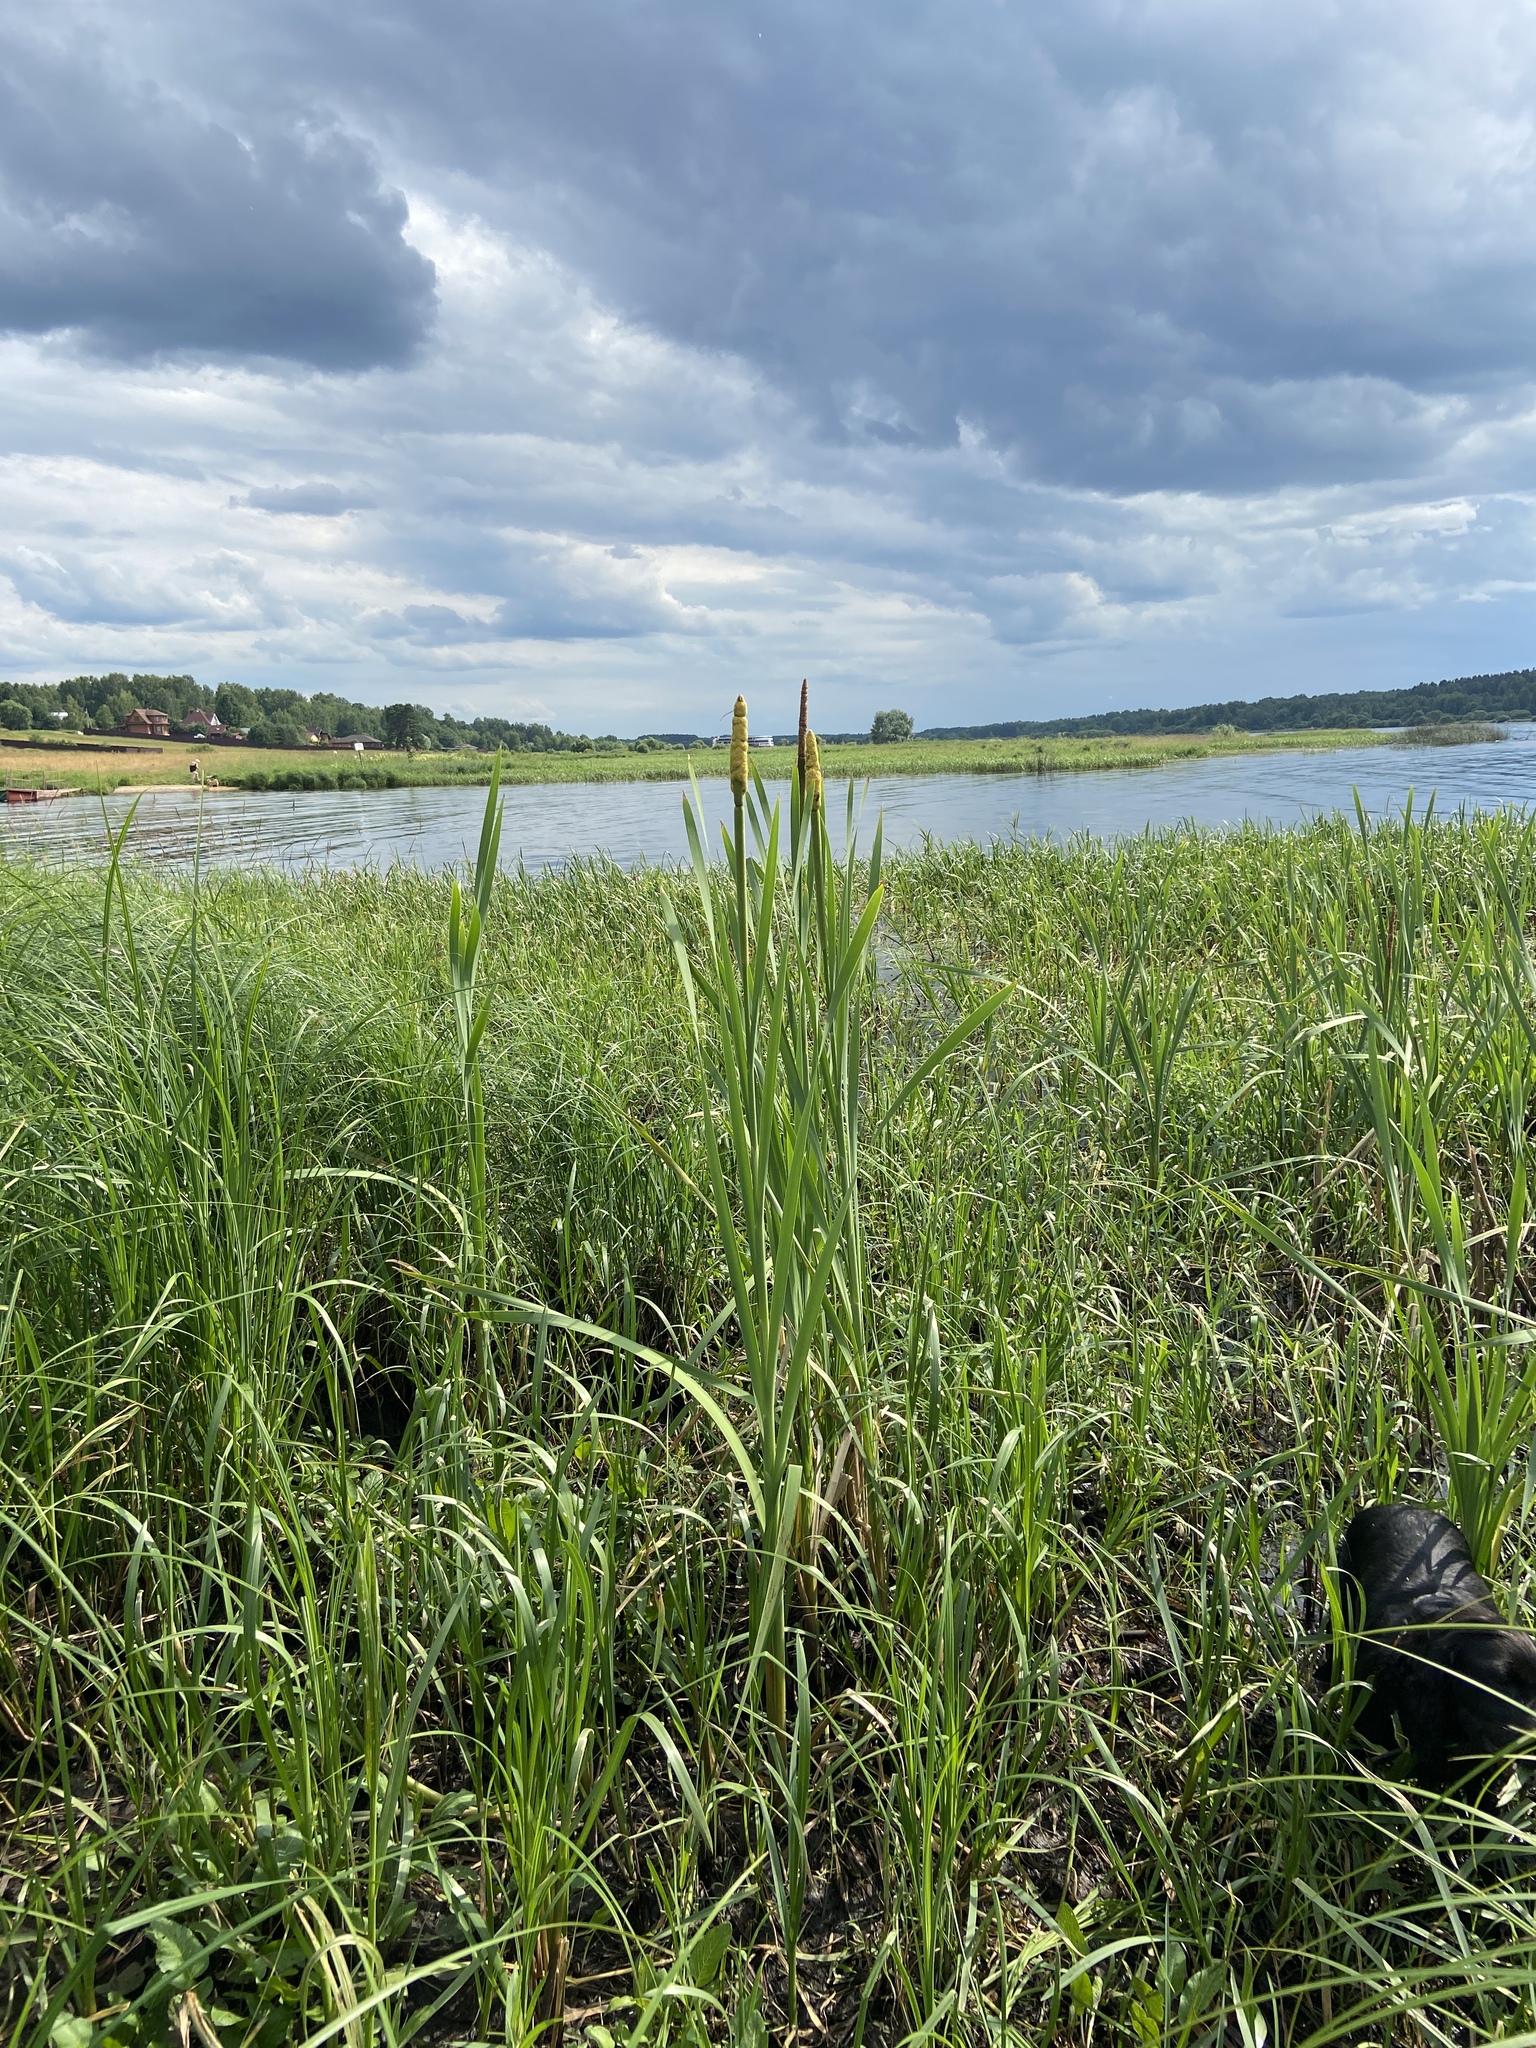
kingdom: Plantae
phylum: Tracheophyta
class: Liliopsida
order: Poales
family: Typhaceae
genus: Typha
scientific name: Typha latifolia
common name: Broadleaf cattail
